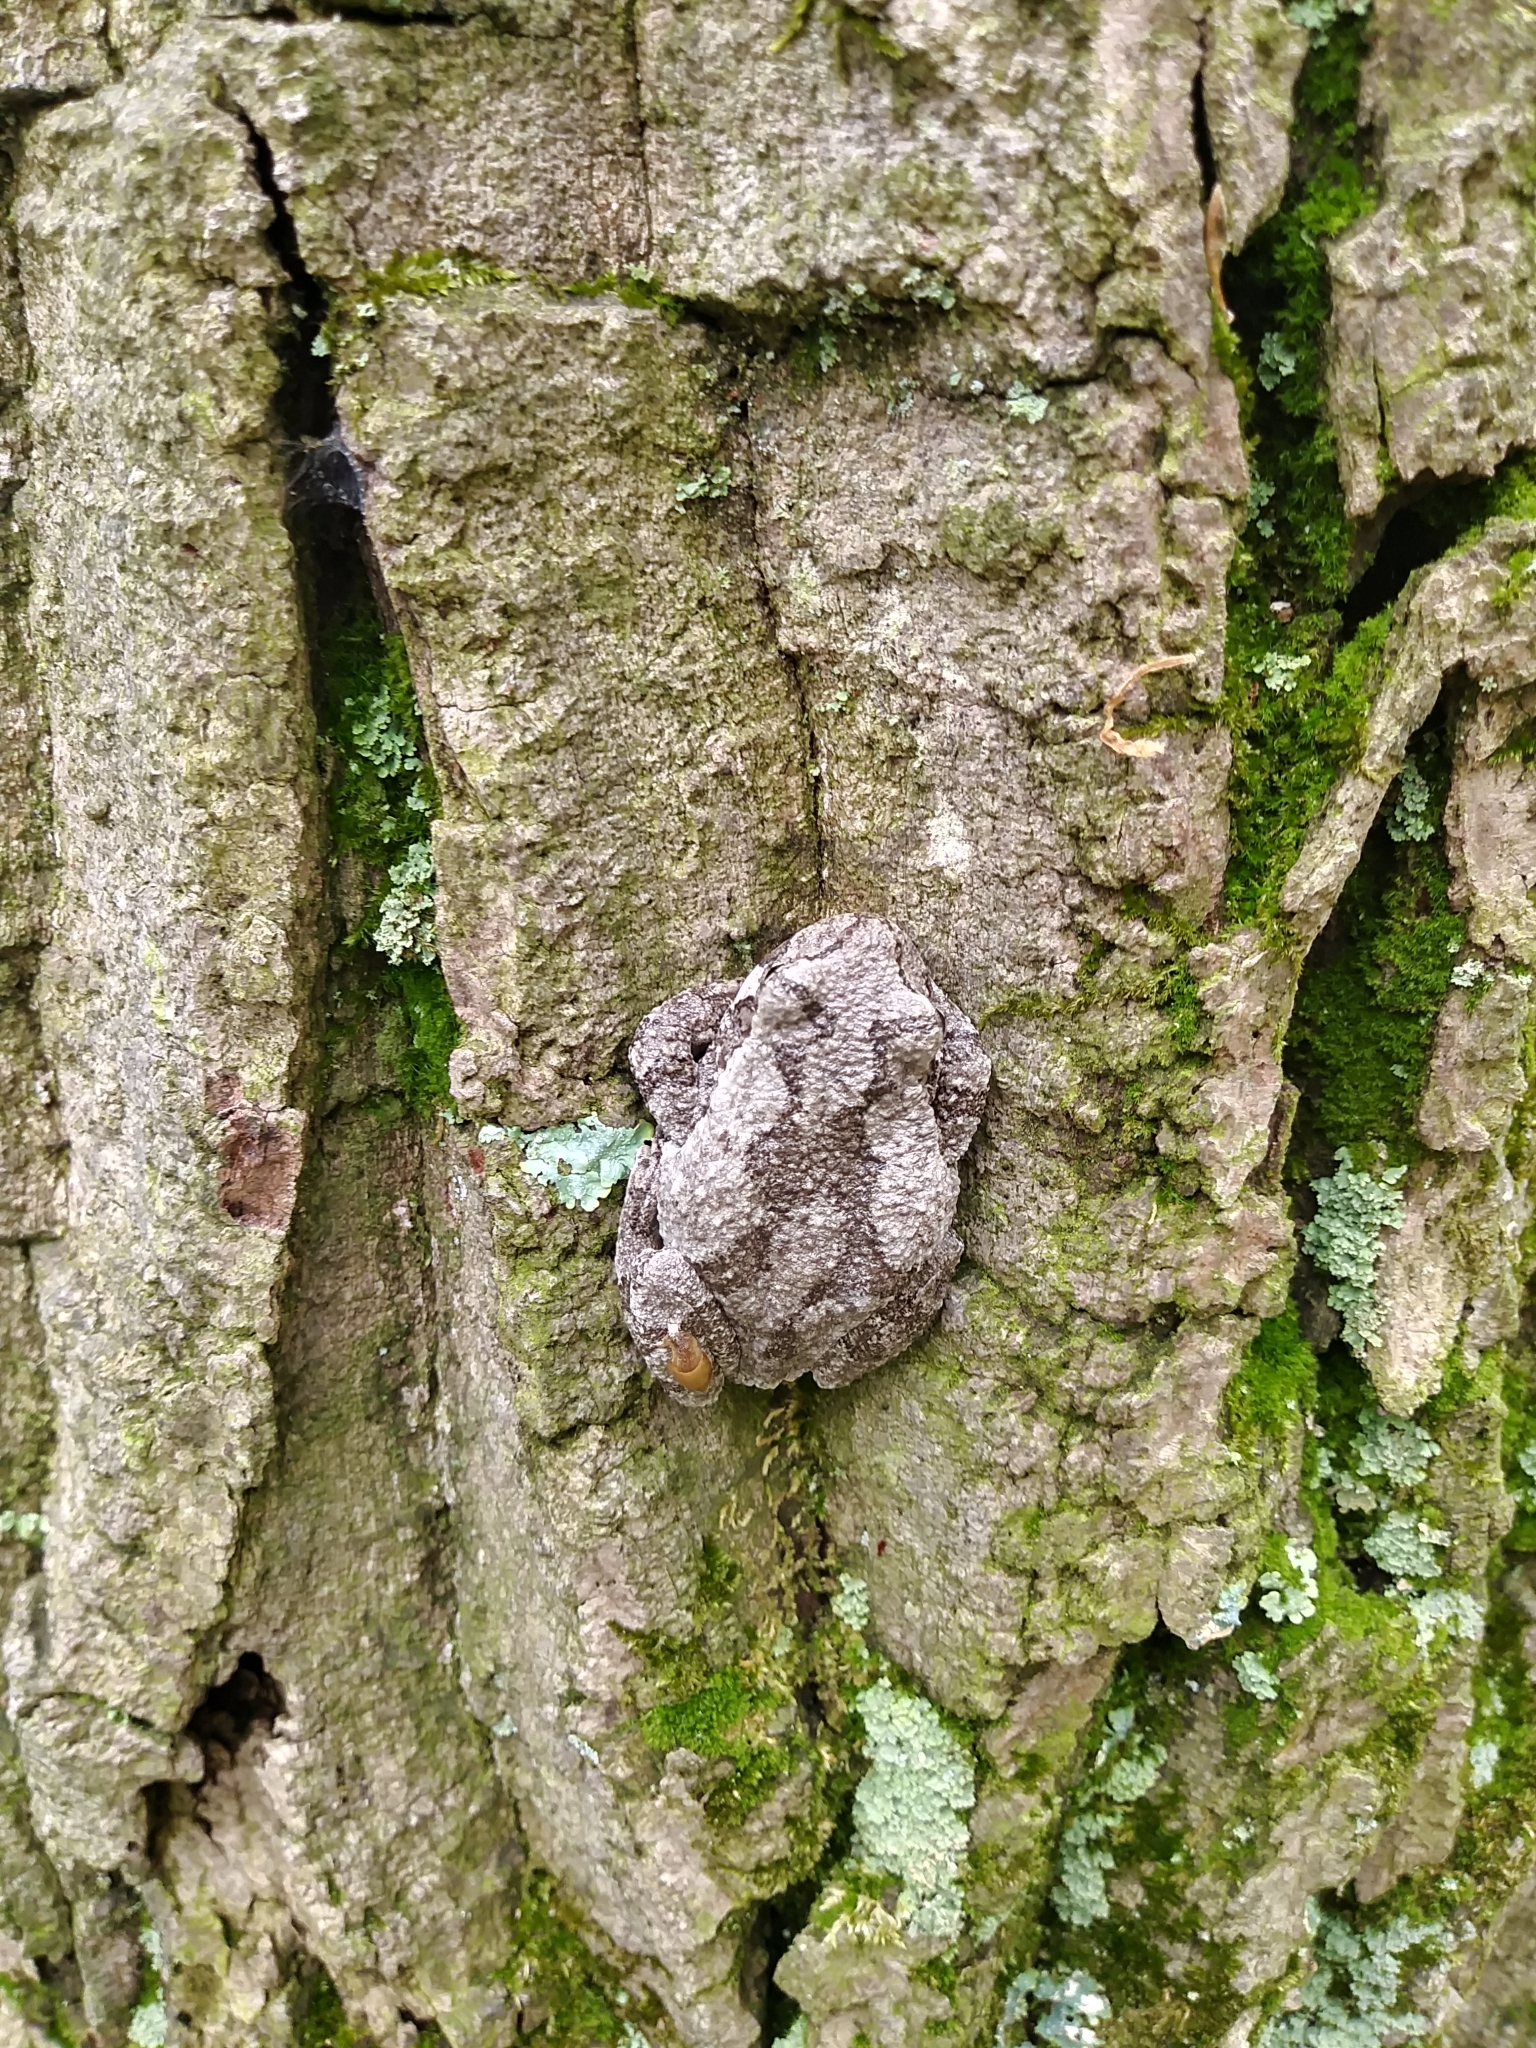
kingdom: Animalia
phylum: Chordata
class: Amphibia
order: Anura
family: Hylidae
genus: Hyla
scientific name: Hyla
